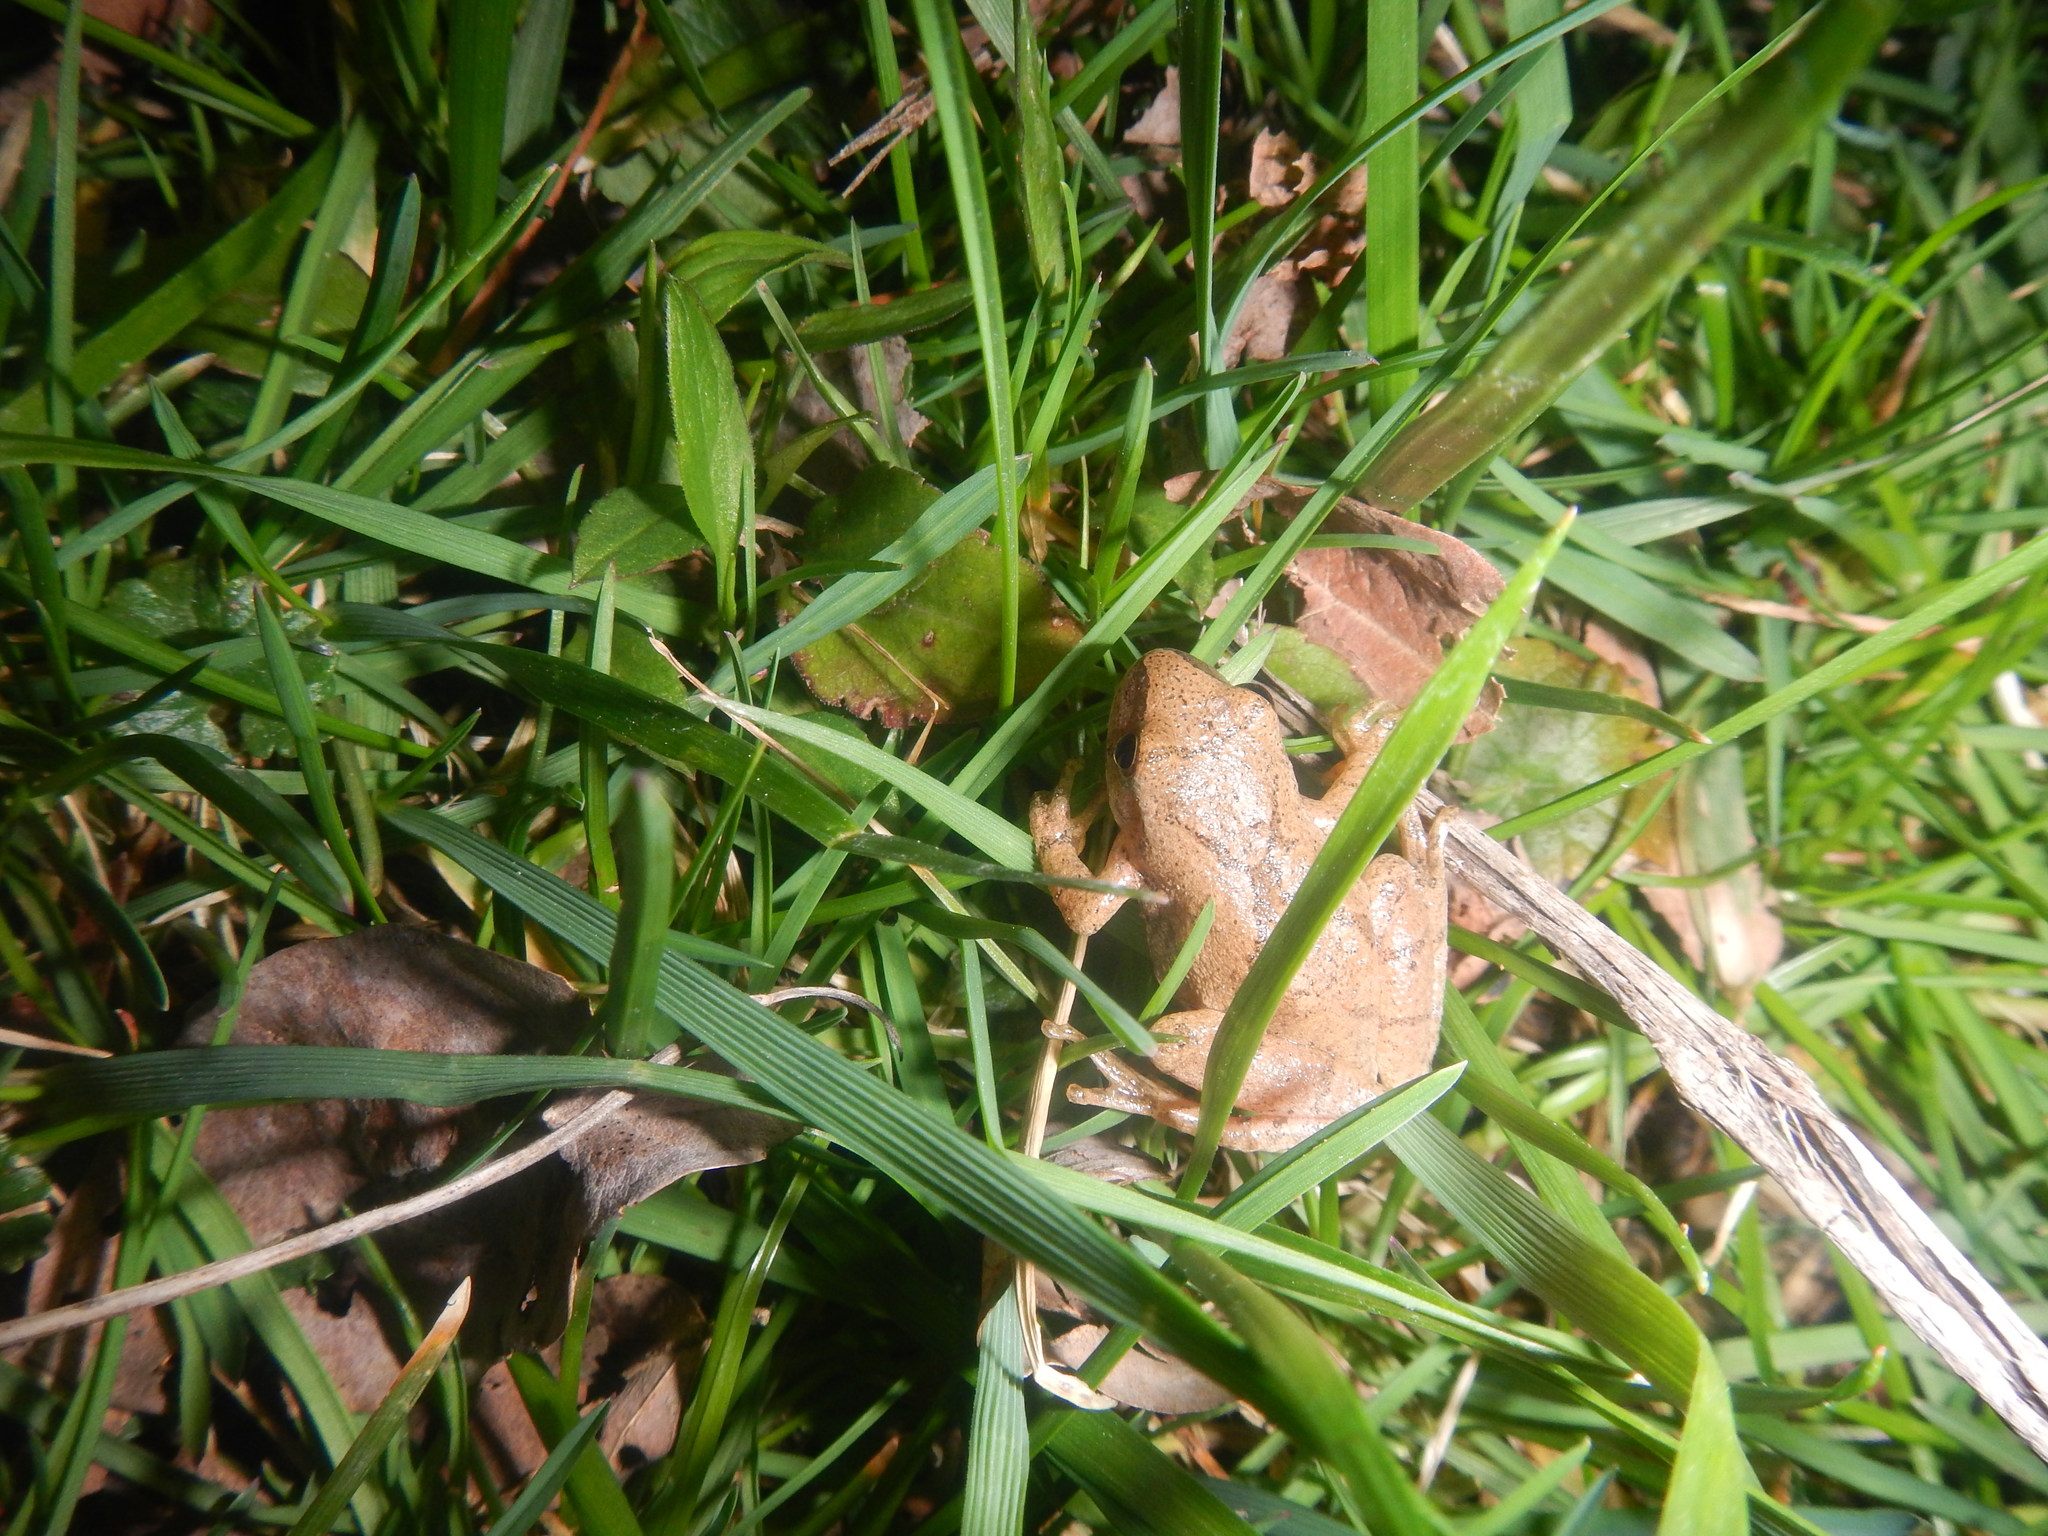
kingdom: Animalia
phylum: Chordata
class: Amphibia
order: Anura
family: Hylidae
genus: Pseudacris
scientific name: Pseudacris crucifer
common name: Spring peeper
